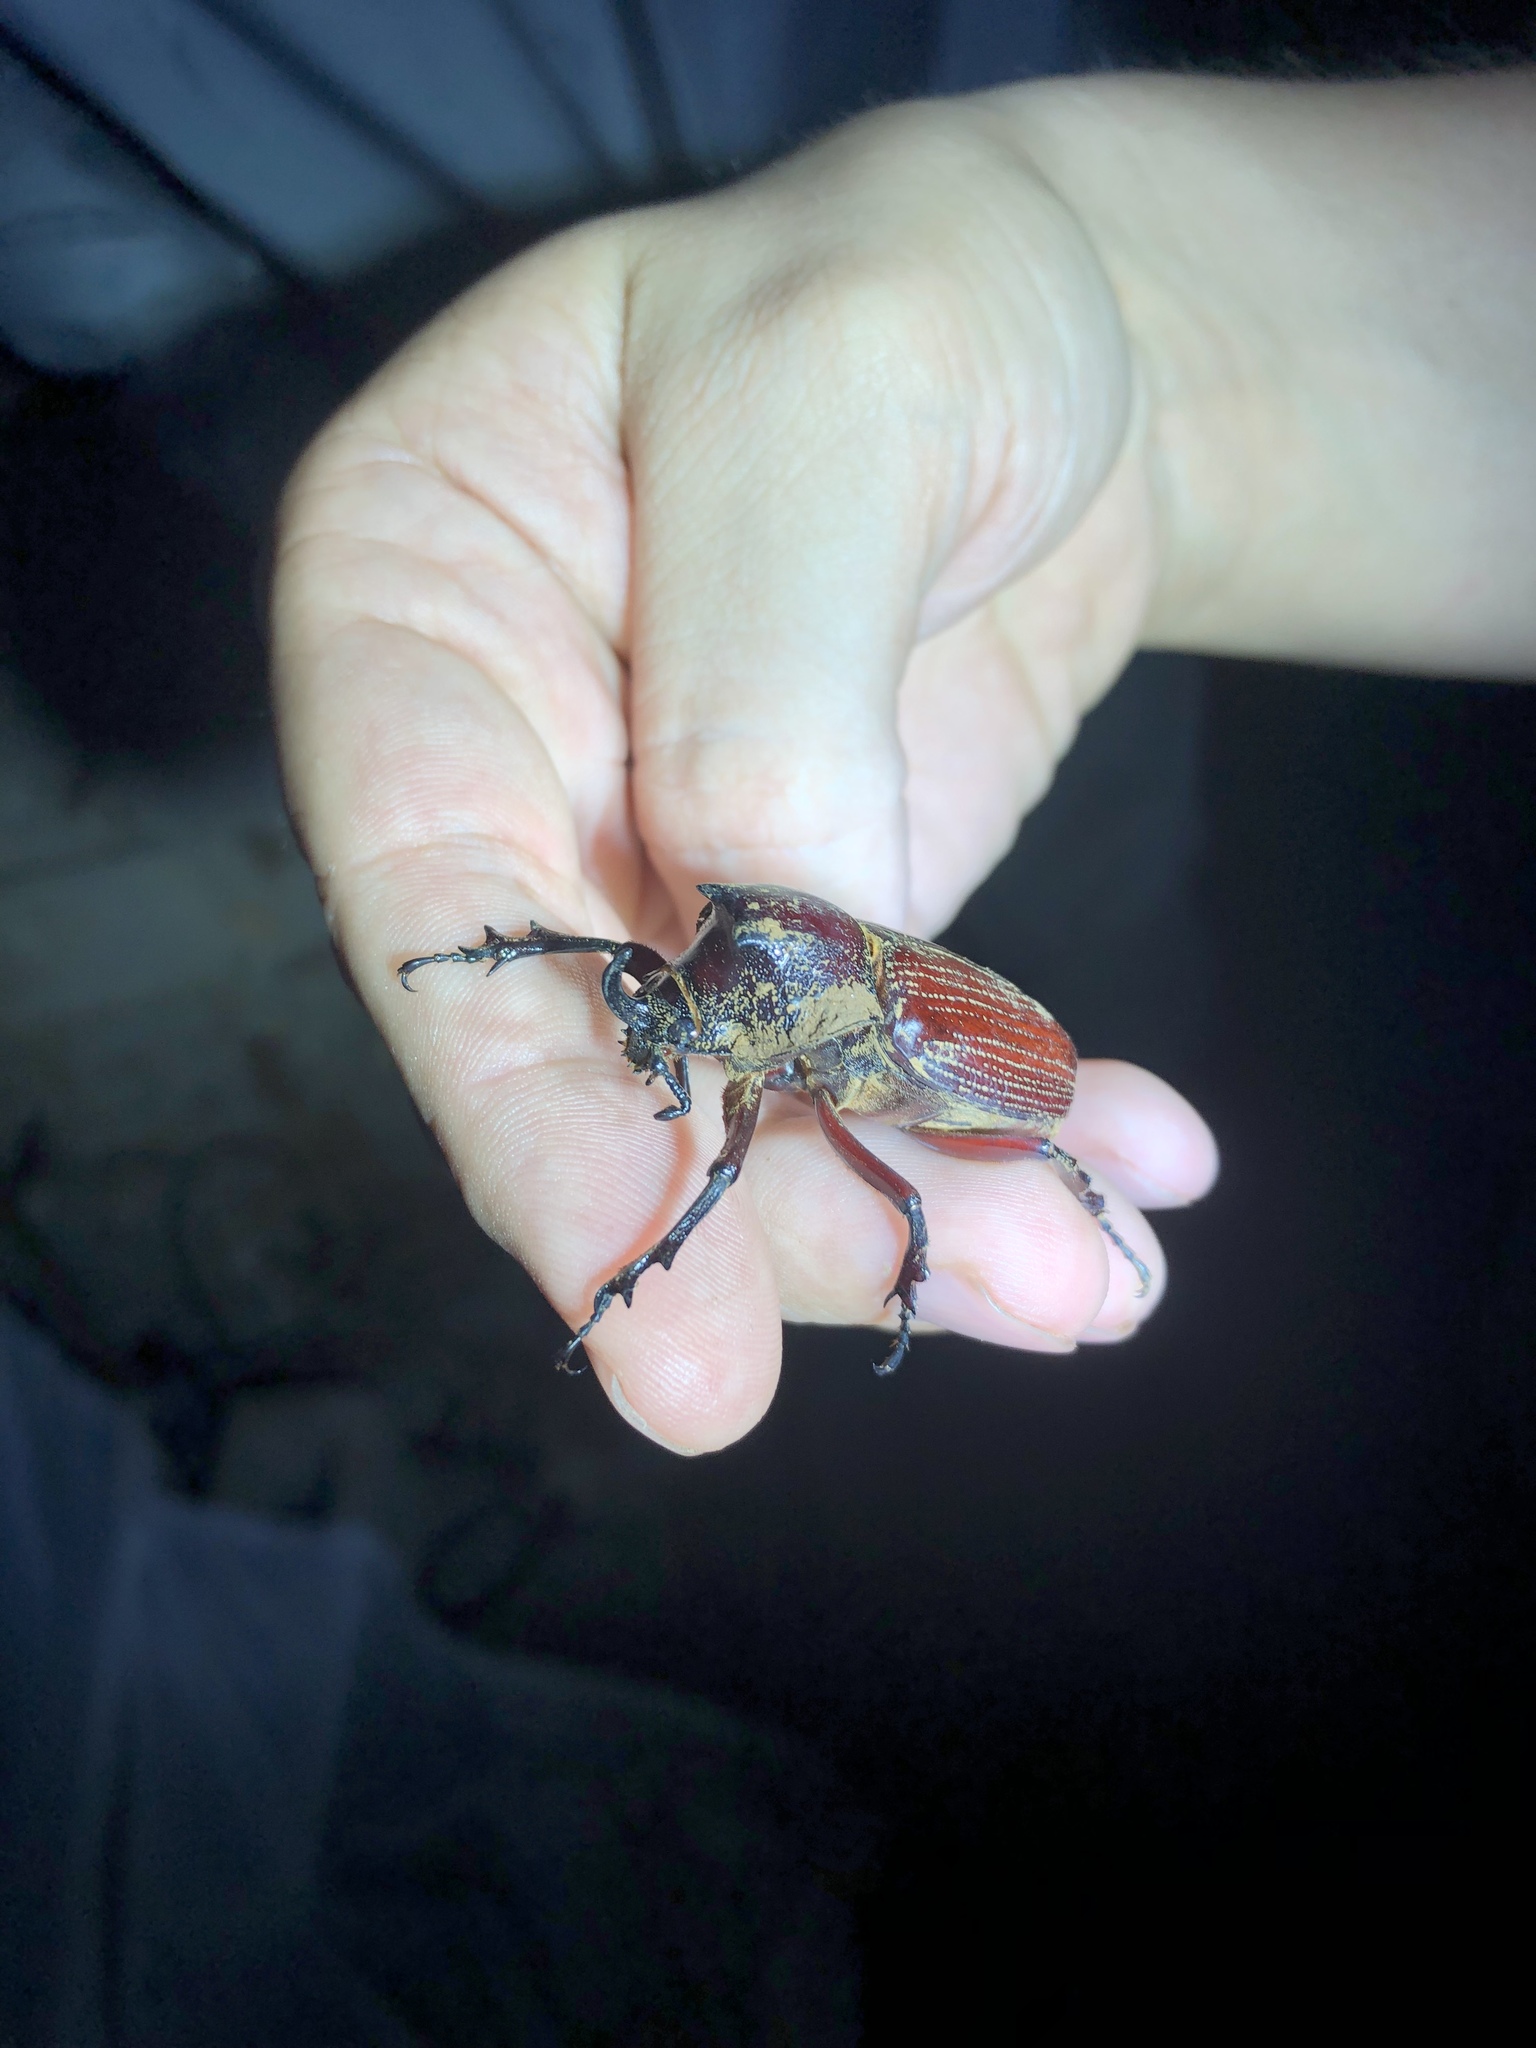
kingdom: Animalia
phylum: Arthropoda
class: Insecta
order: Coleoptera
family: Scarabaeidae
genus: Coelosis
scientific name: Coelosis biloba
